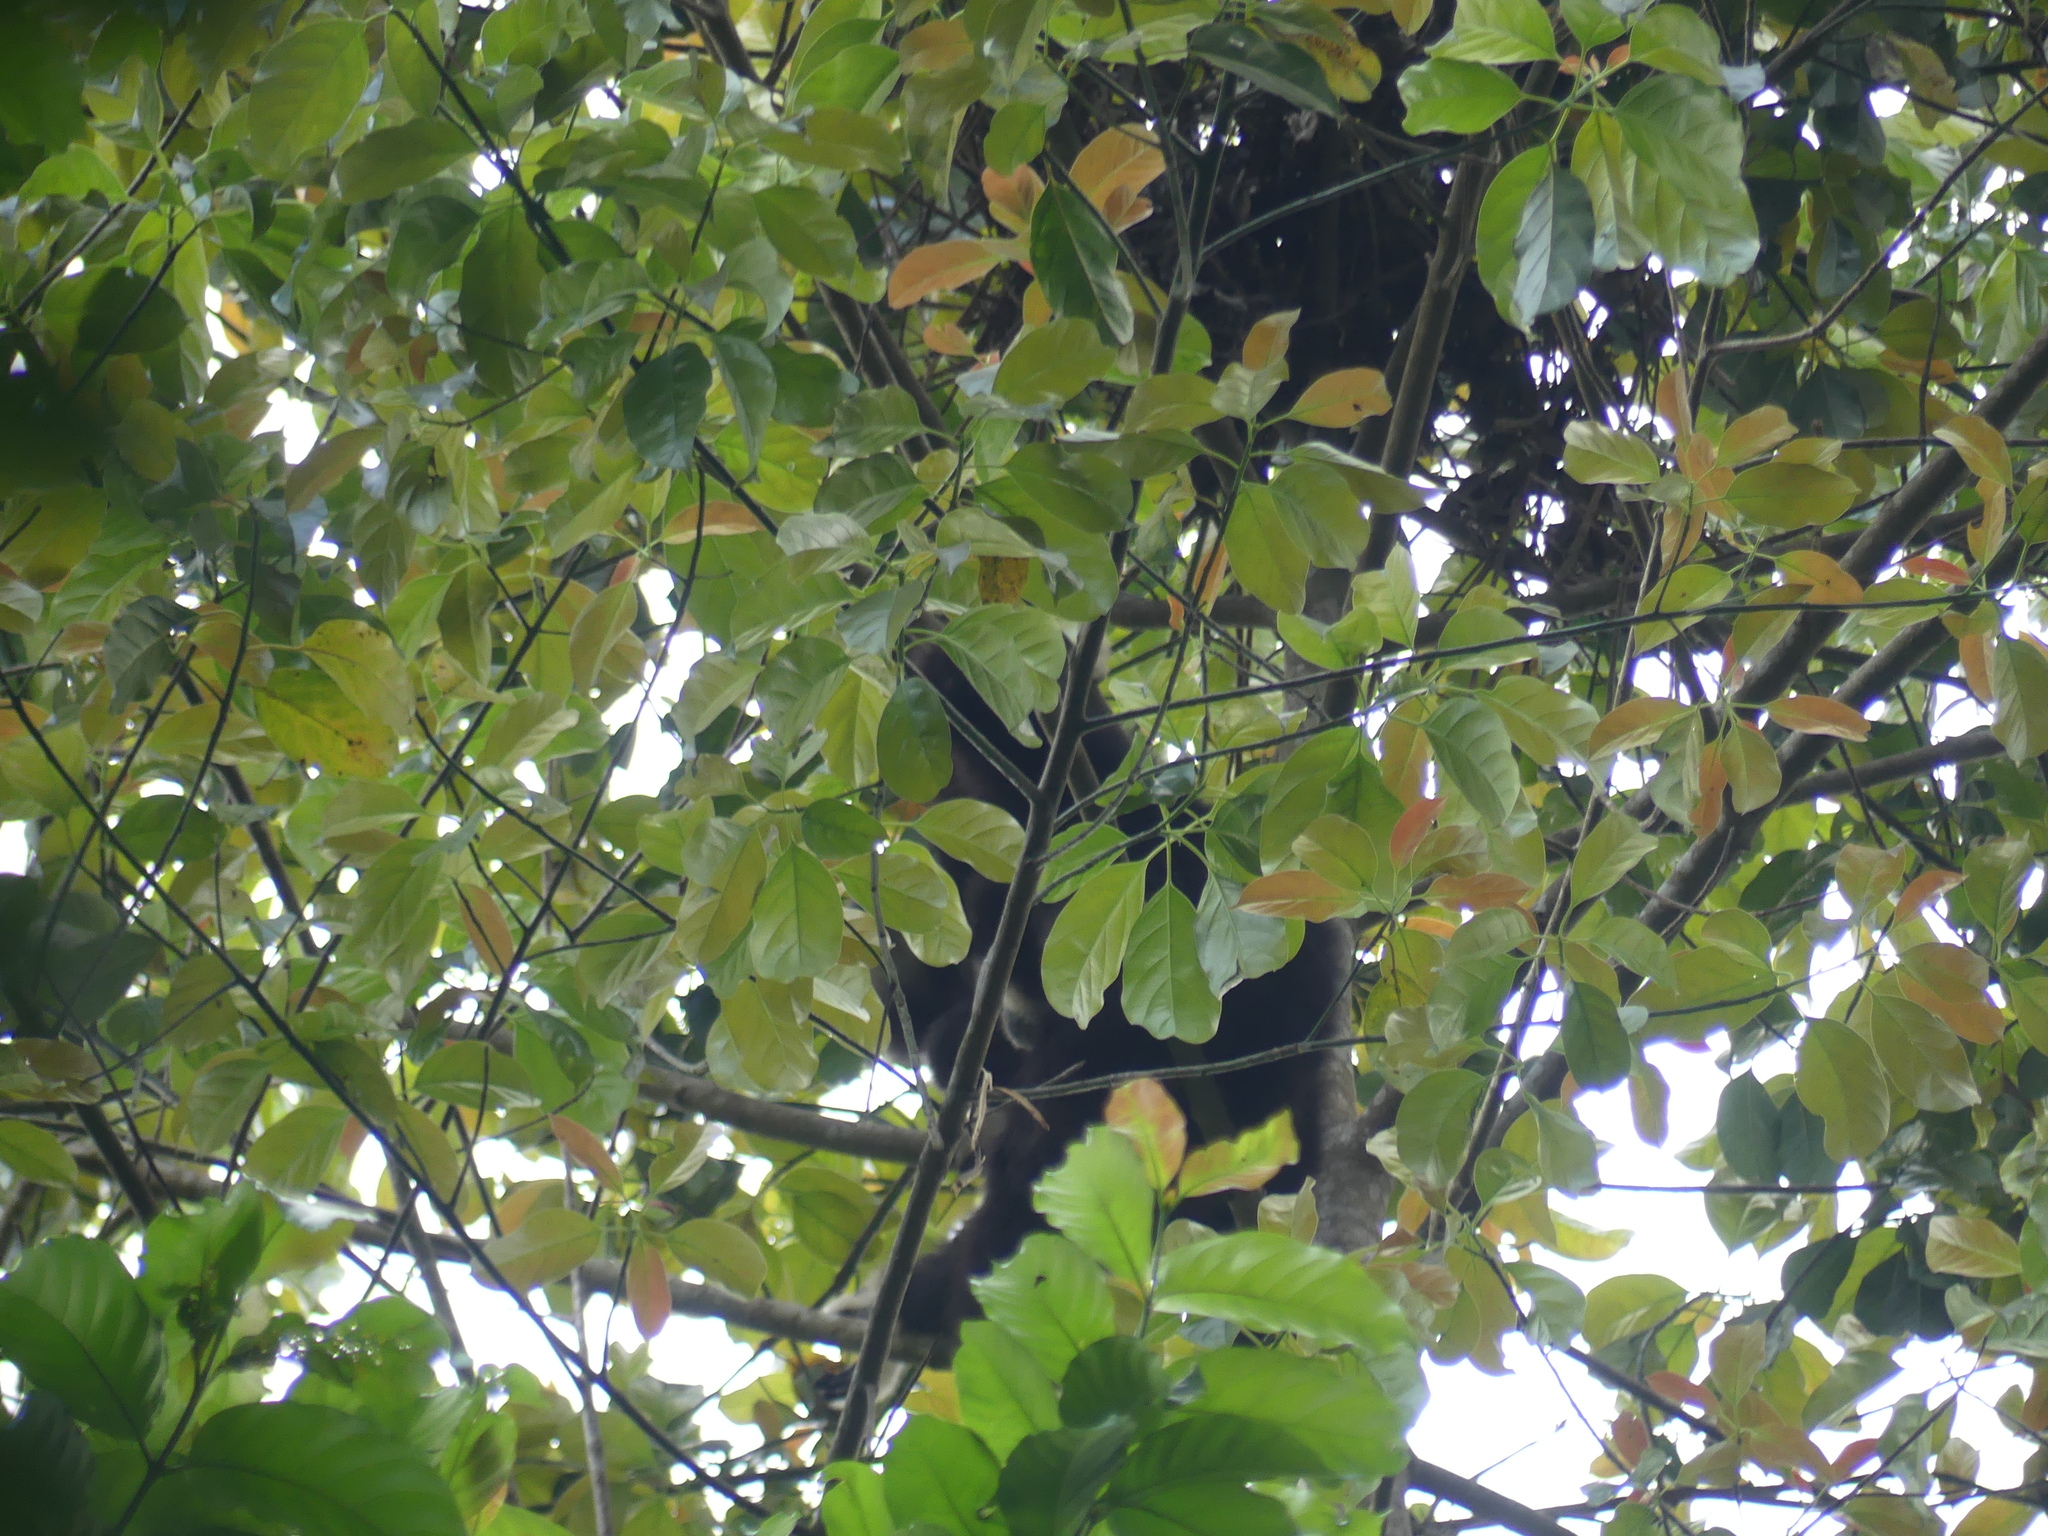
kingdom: Animalia
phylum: Chordata
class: Mammalia
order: Primates
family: Hylobatidae
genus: Hylobates
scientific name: Hylobates lar
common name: Lar gibbon
